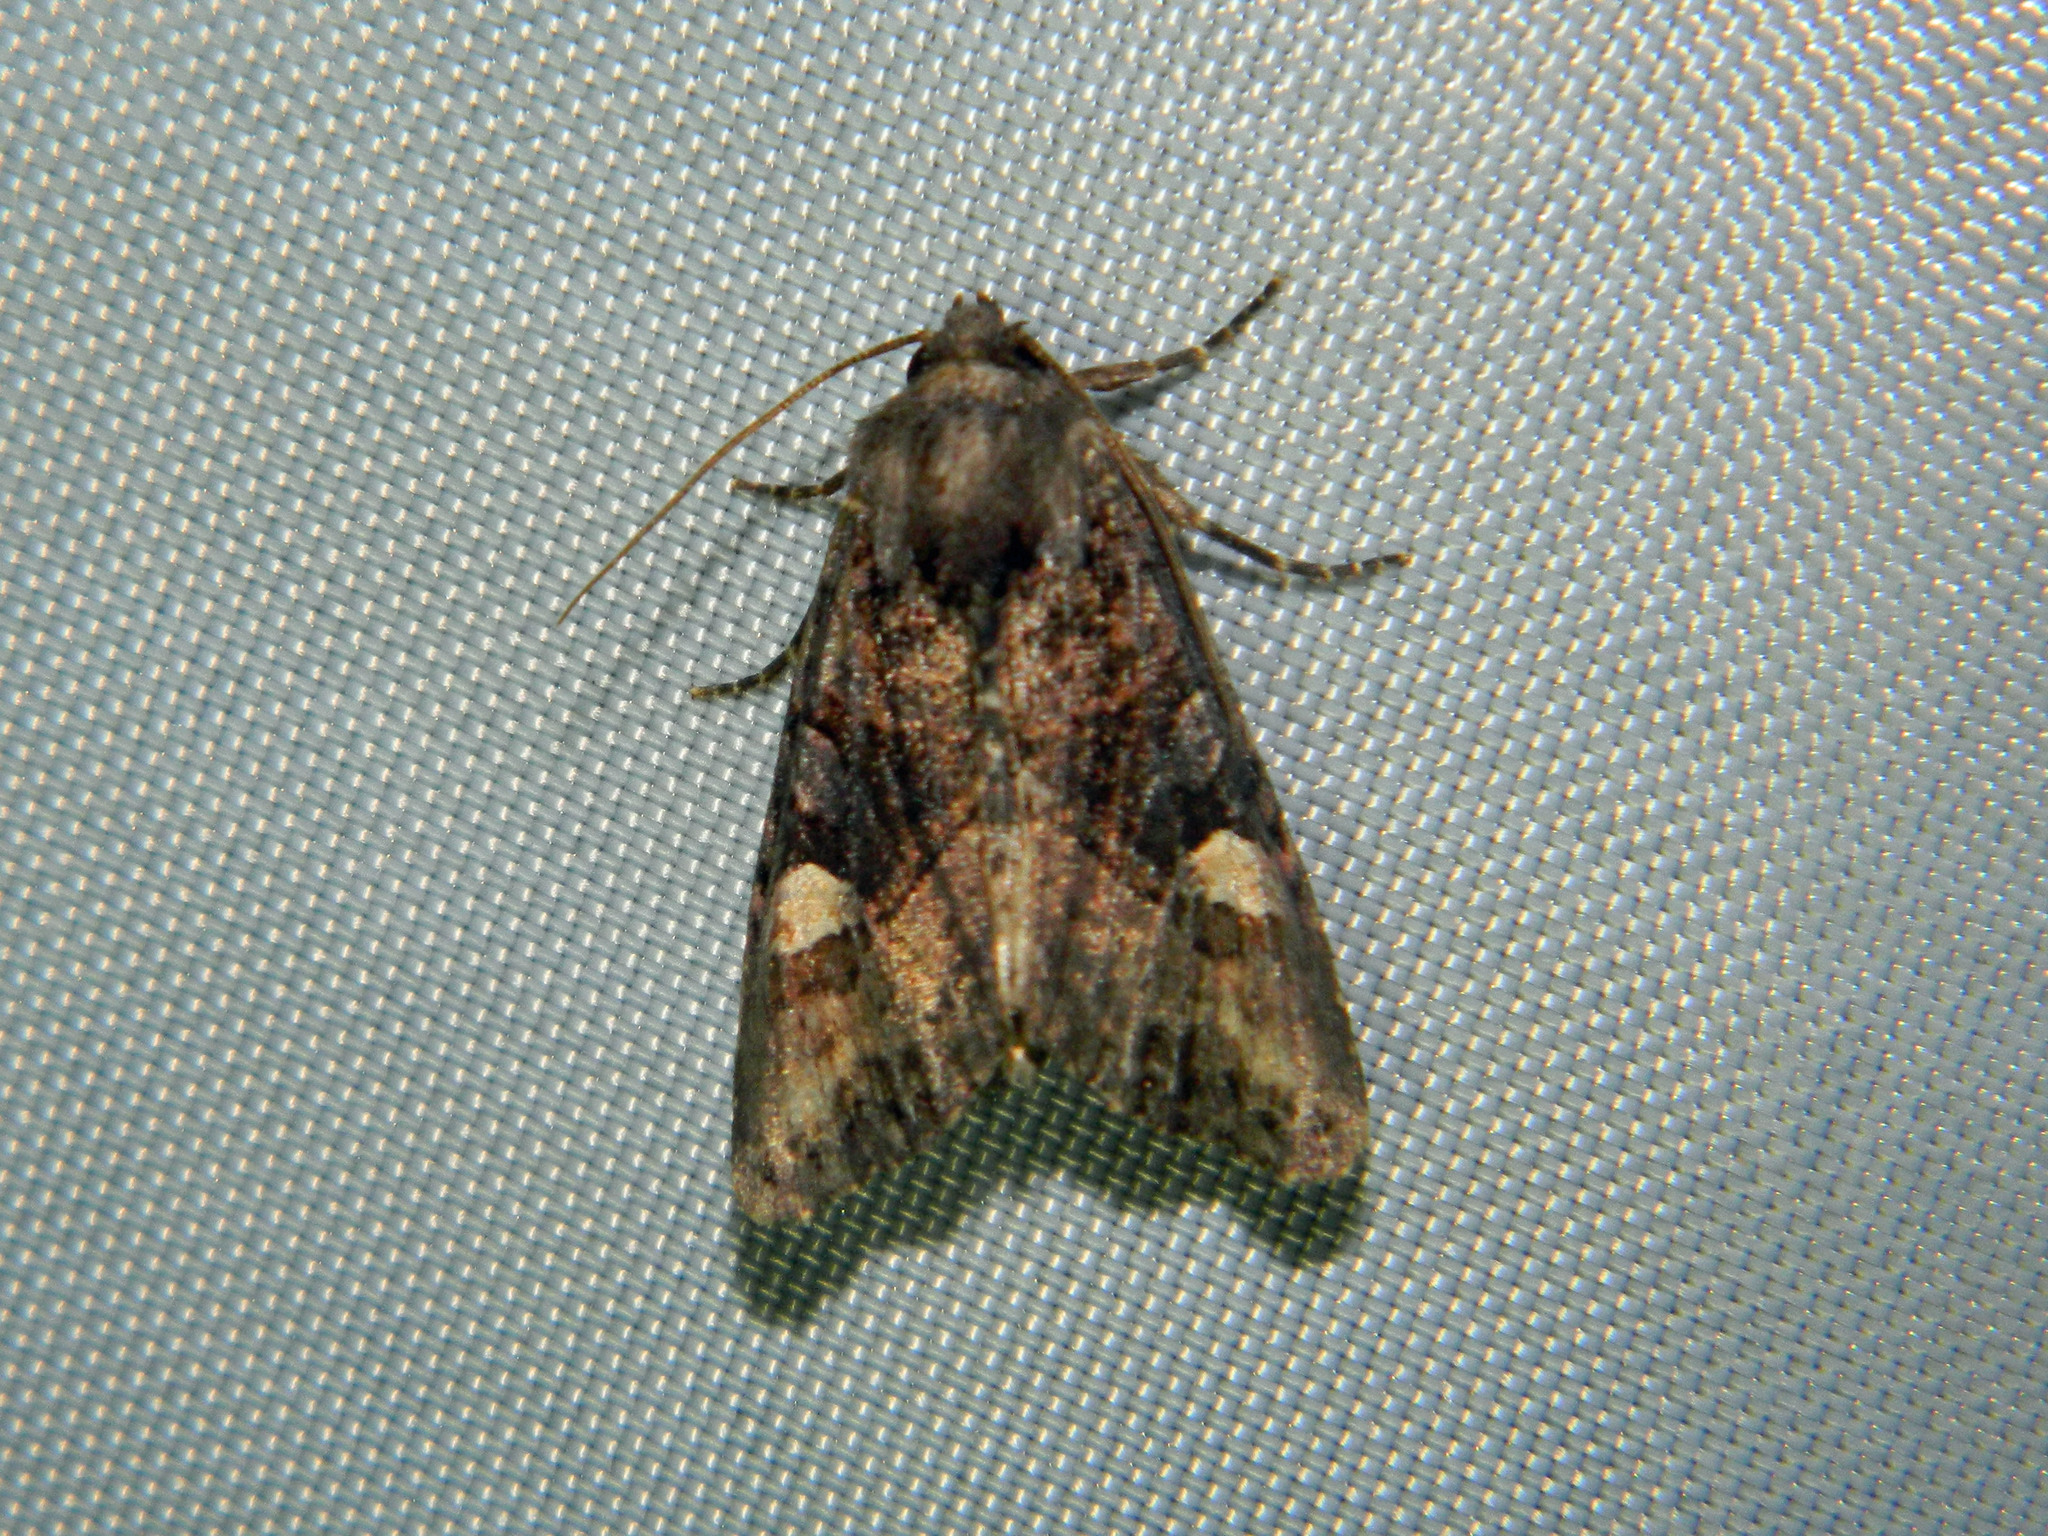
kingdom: Animalia
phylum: Arthropoda
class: Insecta
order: Lepidoptera
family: Noctuidae
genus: Euplexia
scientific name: Euplexia benesimilis
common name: American angle shades
